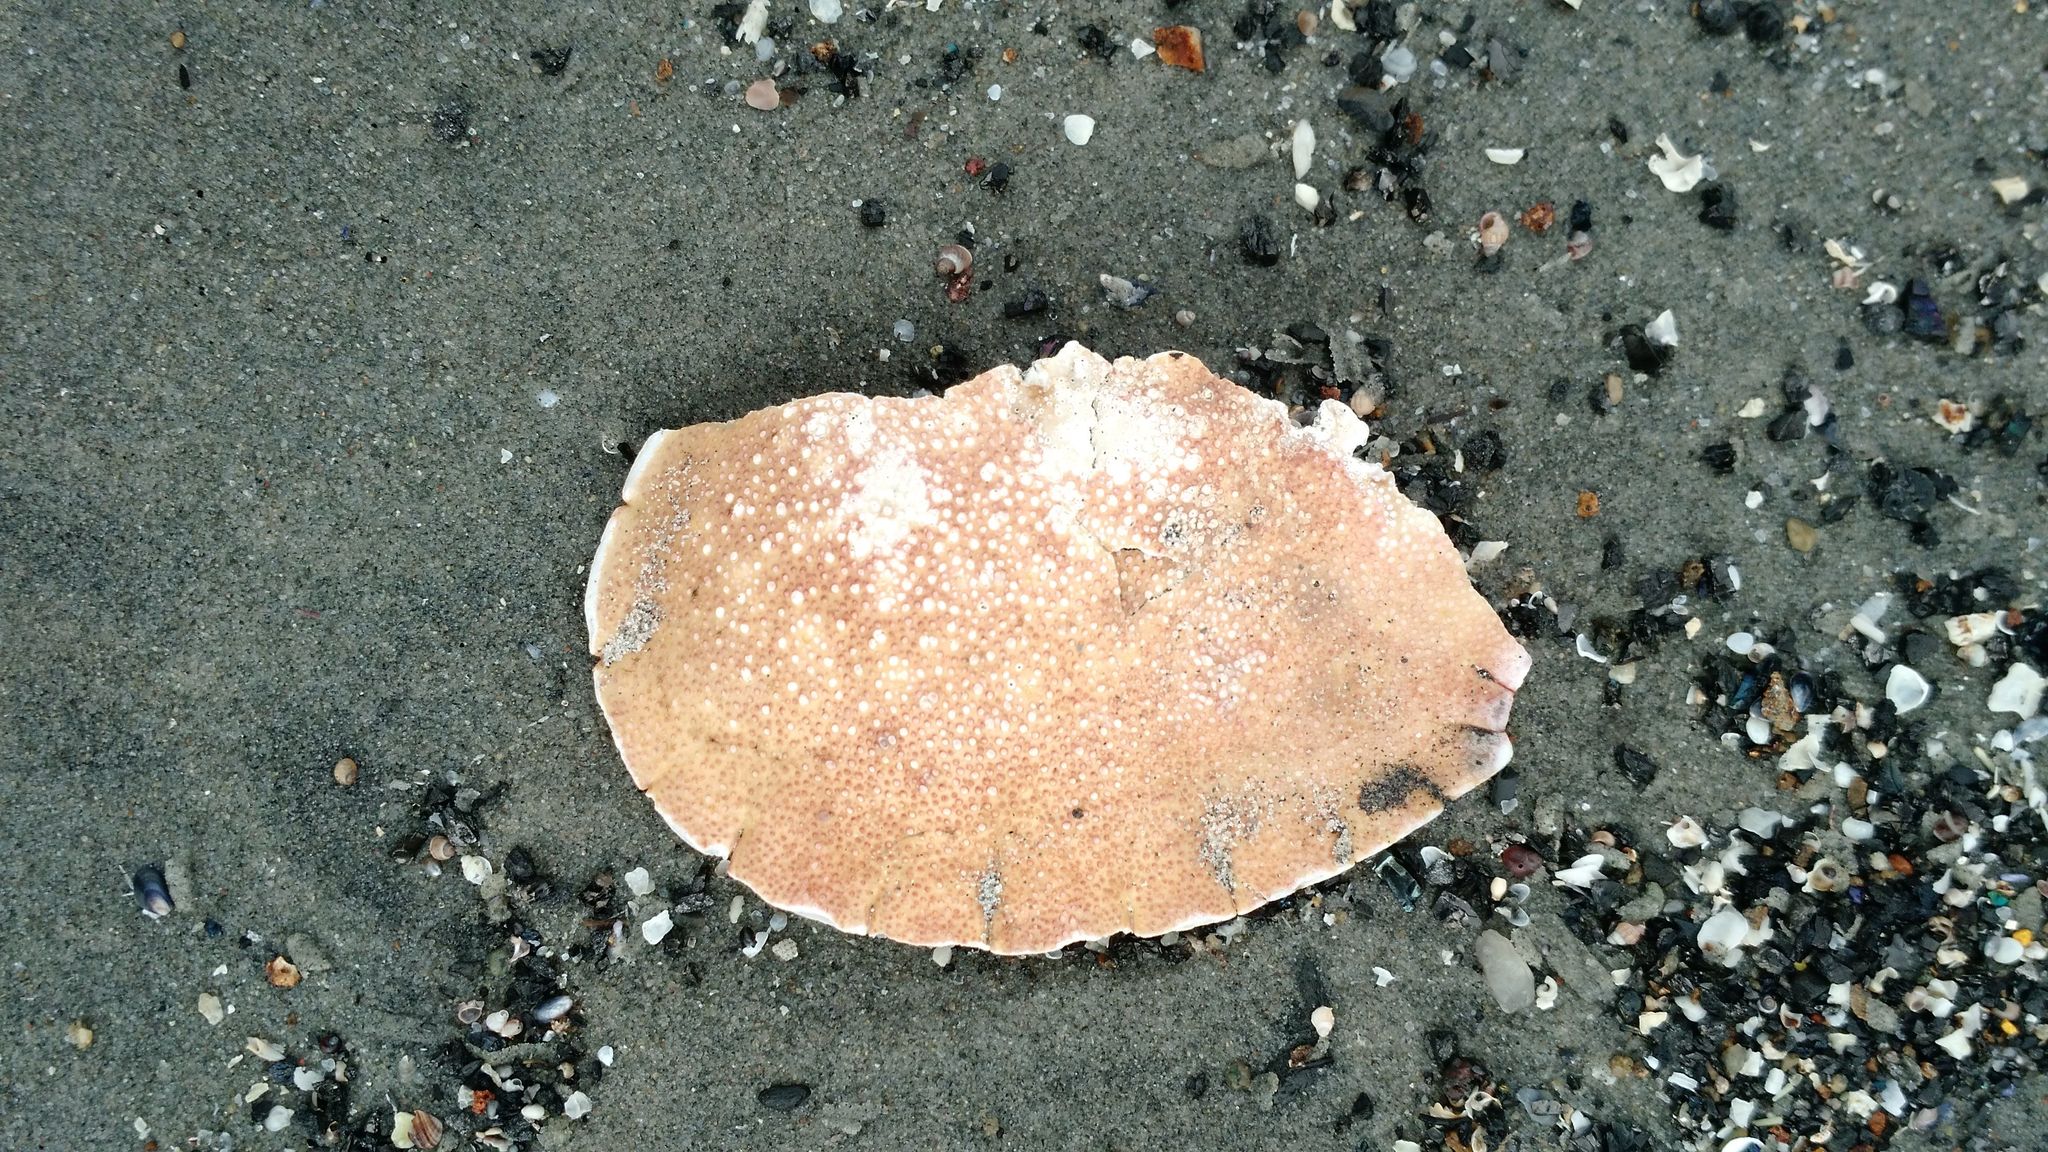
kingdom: Animalia
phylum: Arthropoda
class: Malacostraca
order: Decapoda
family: Cancridae
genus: Cancer
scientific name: Cancer irroratus
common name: Atlantic rock crab
